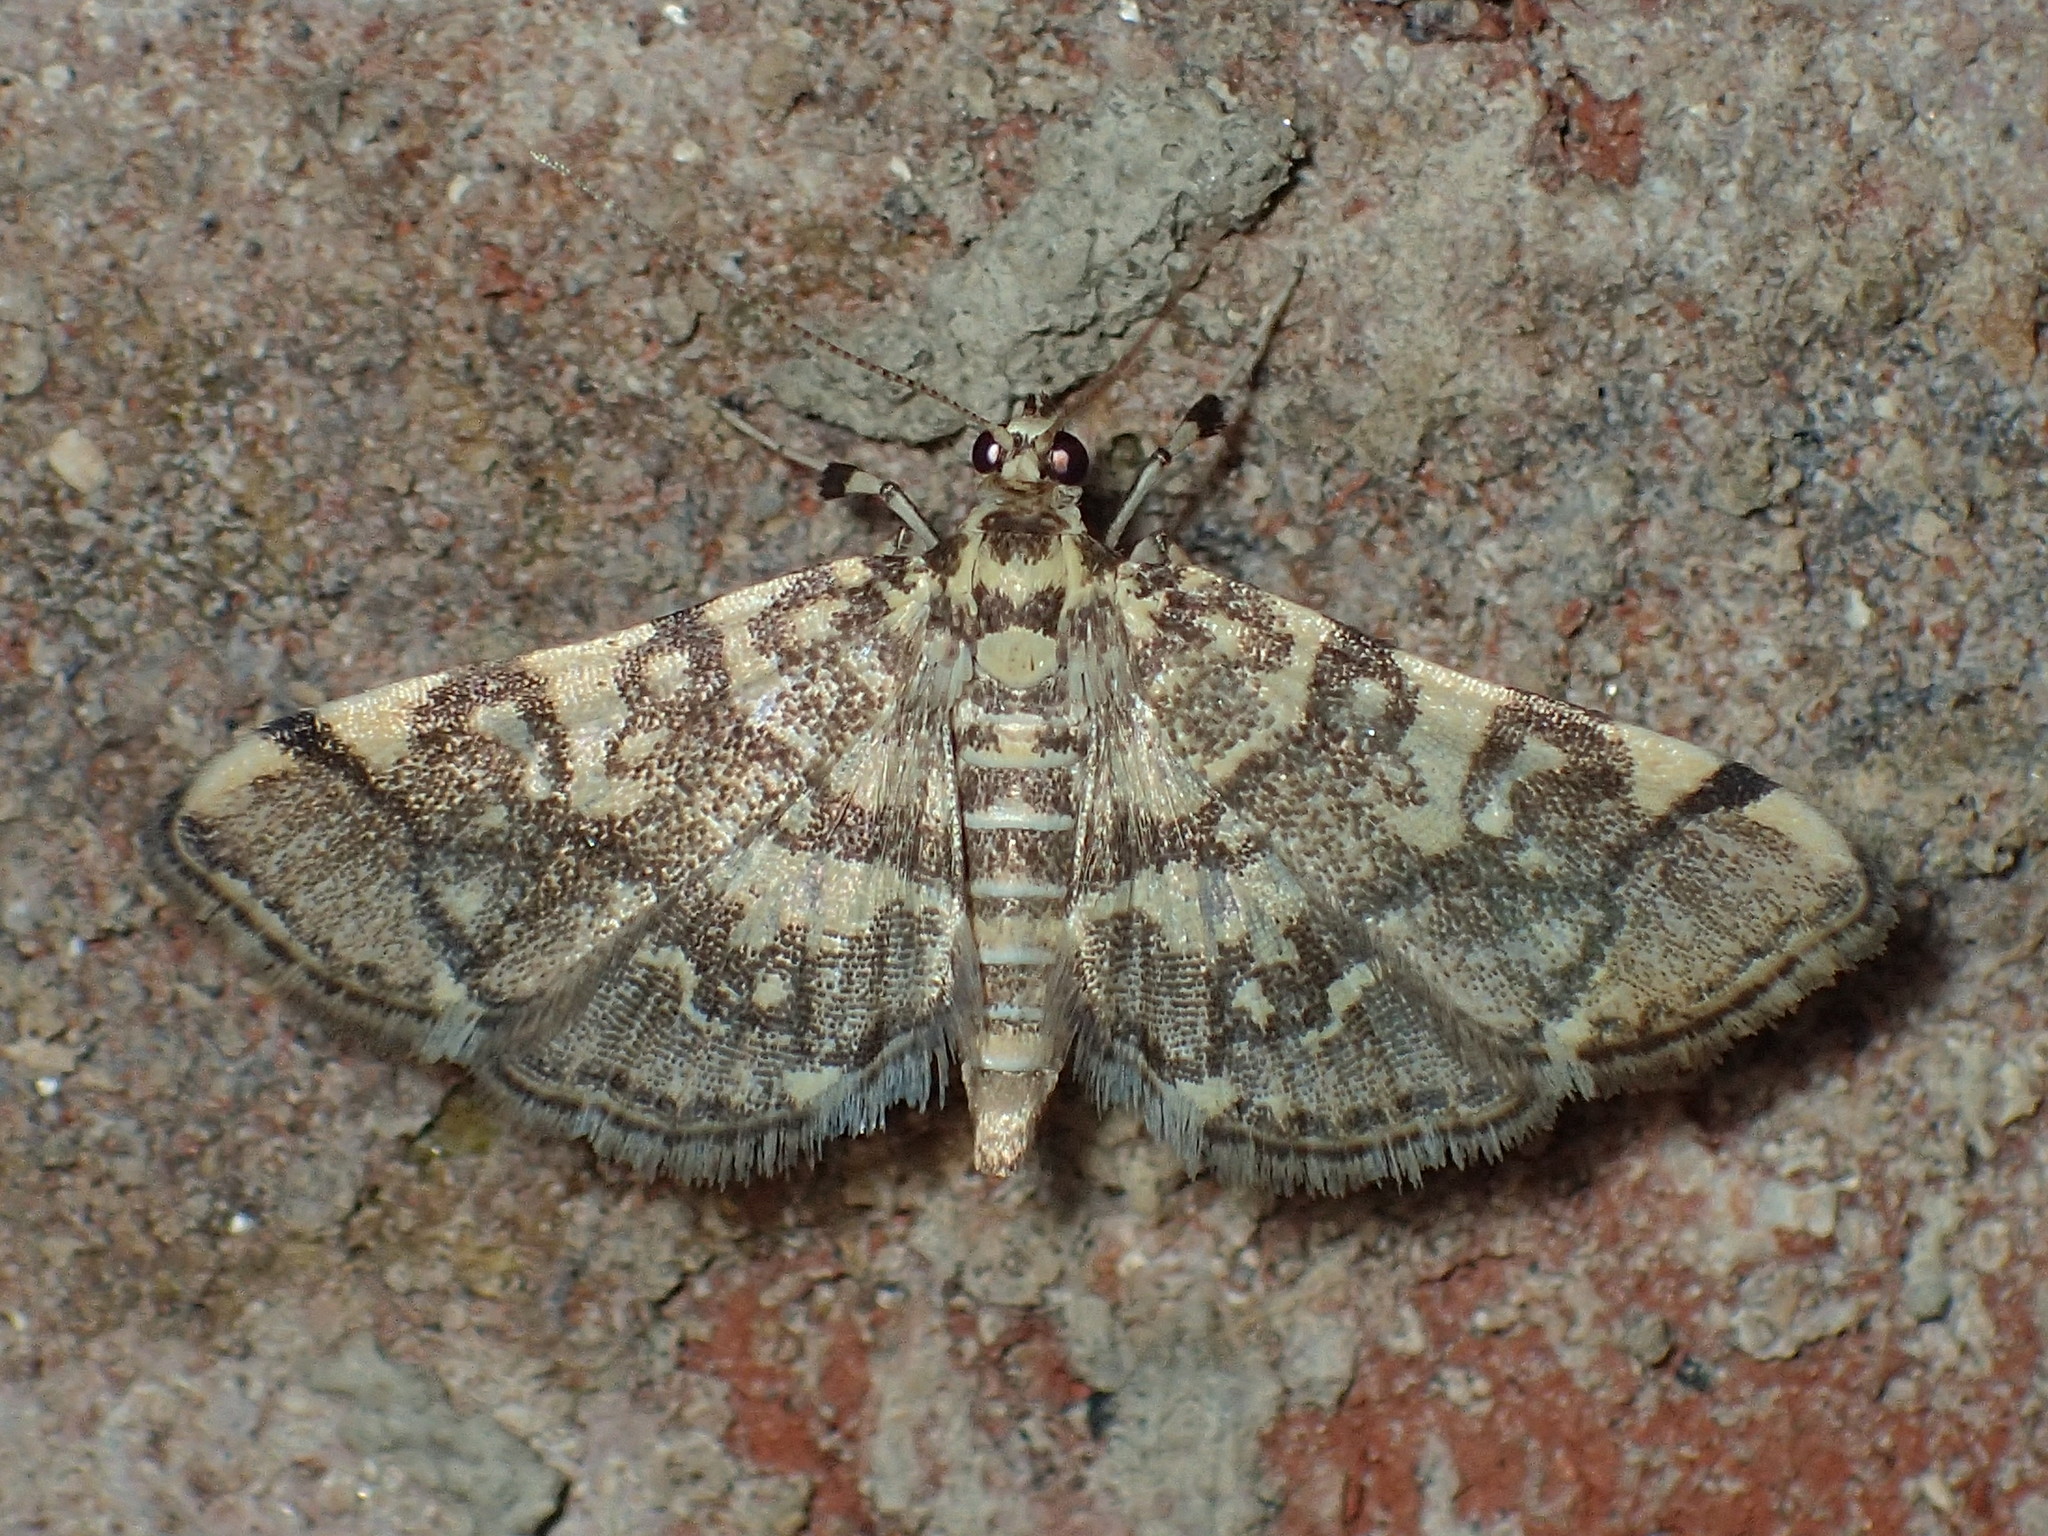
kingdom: Animalia
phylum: Arthropoda
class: Insecta
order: Lepidoptera
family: Crambidae
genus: Apogeshna
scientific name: Apogeshna stenialis
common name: Checkered apogeshna moth
